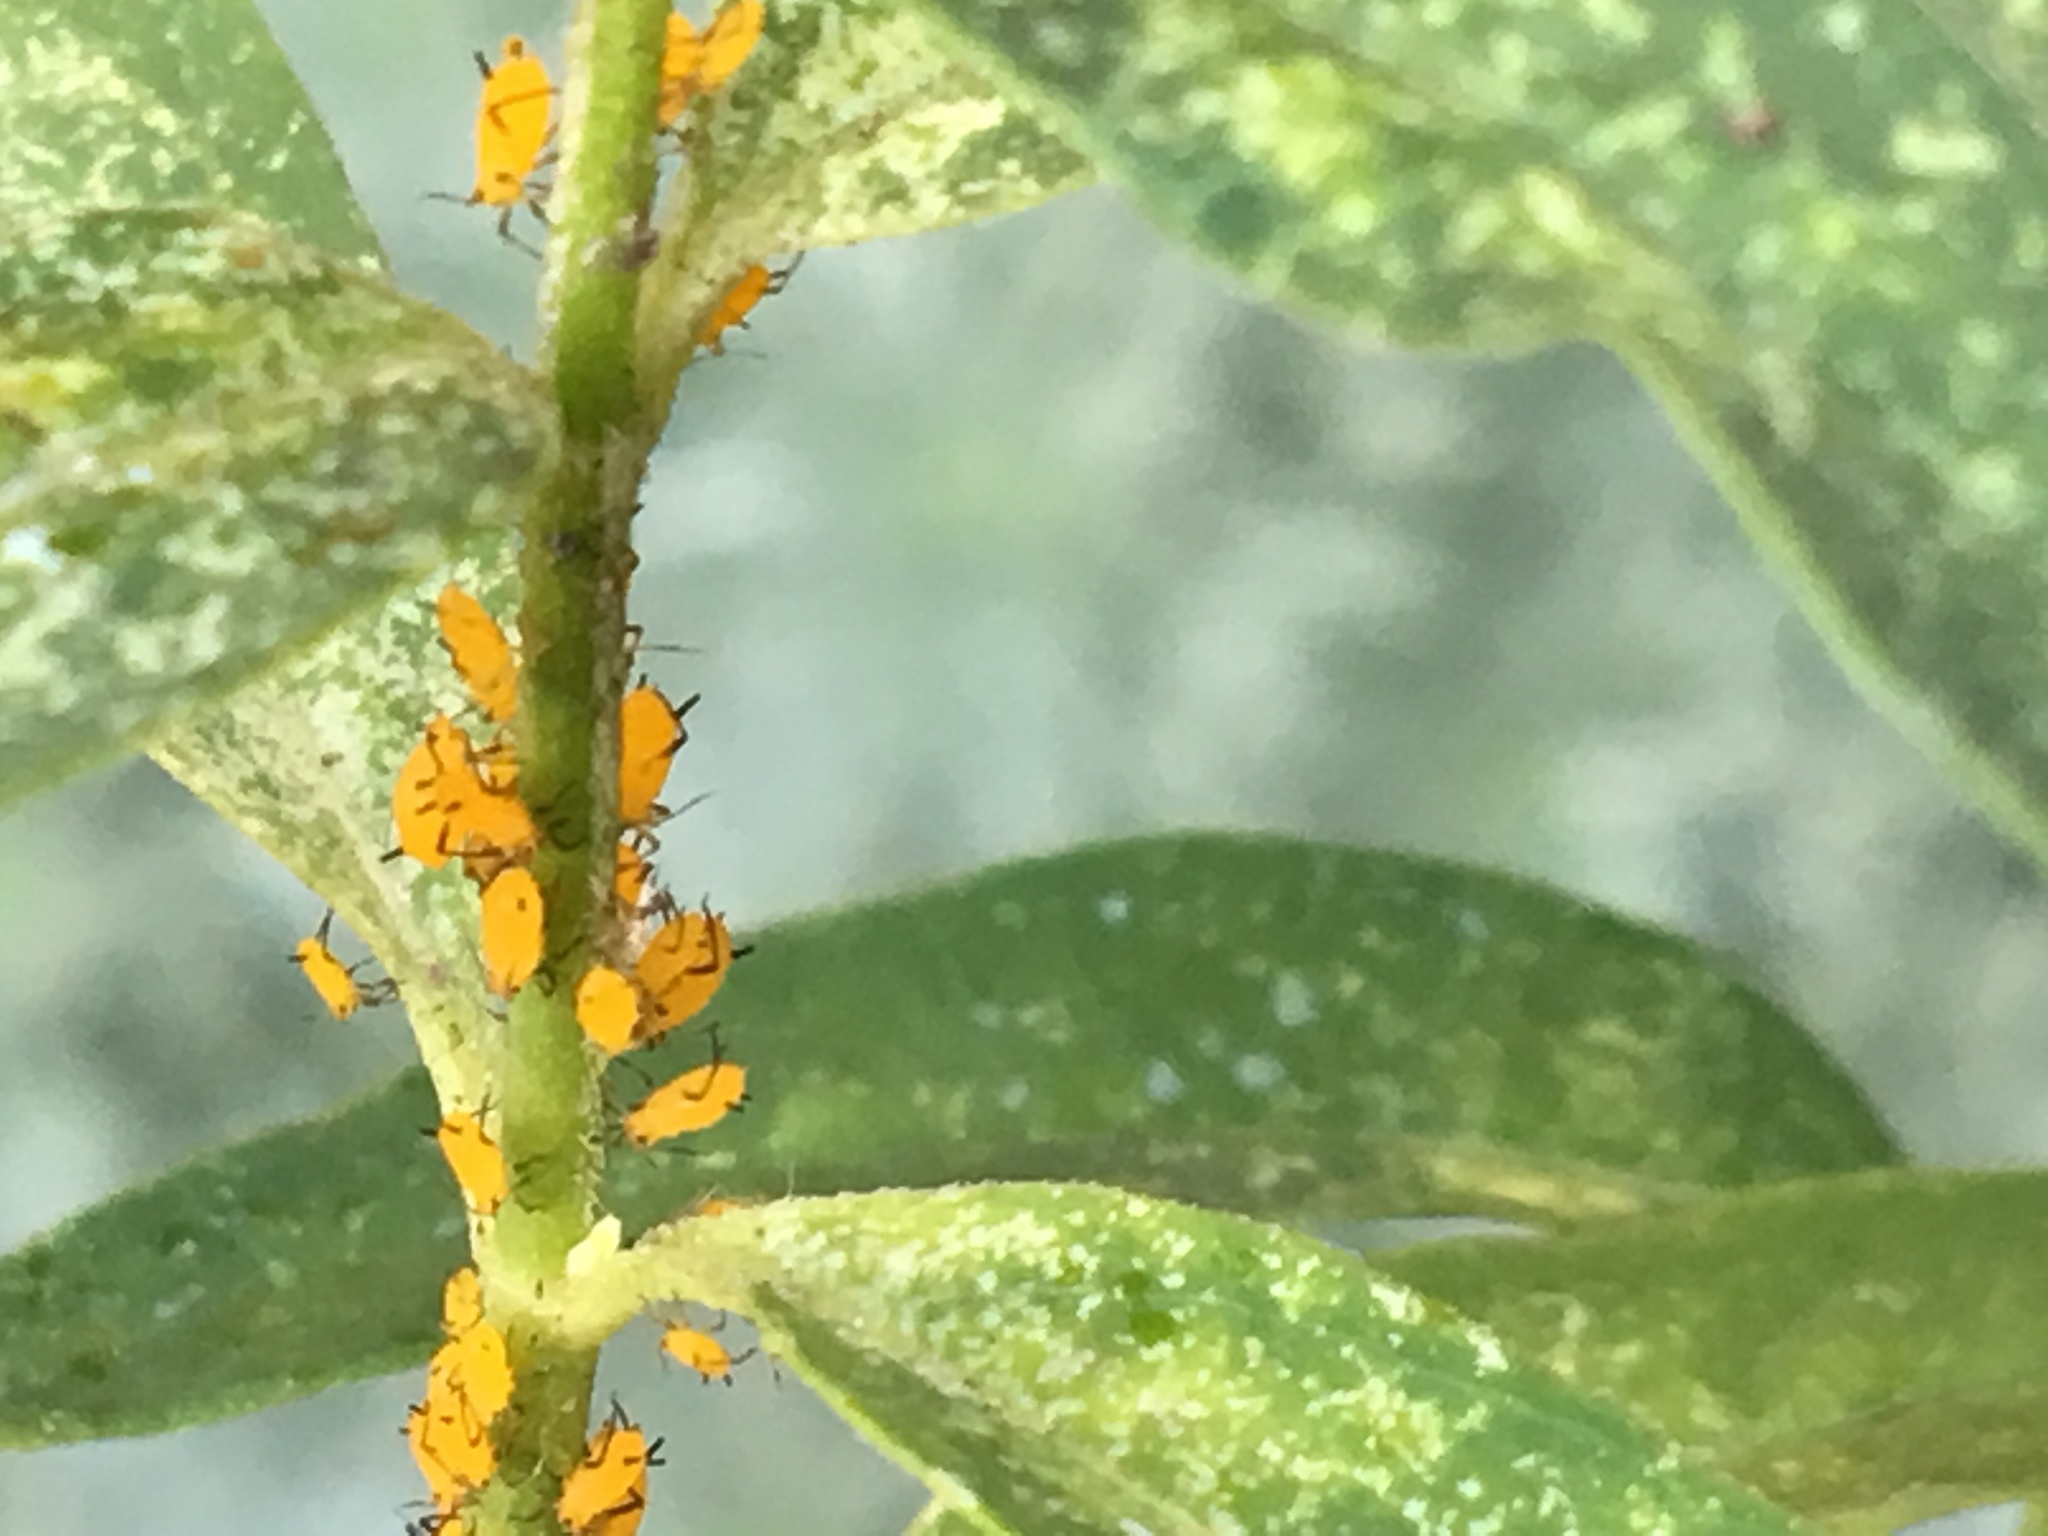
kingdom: Animalia
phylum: Arthropoda
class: Insecta
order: Hemiptera
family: Aphididae
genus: Aphis
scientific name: Aphis nerii
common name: Oleander aphid
